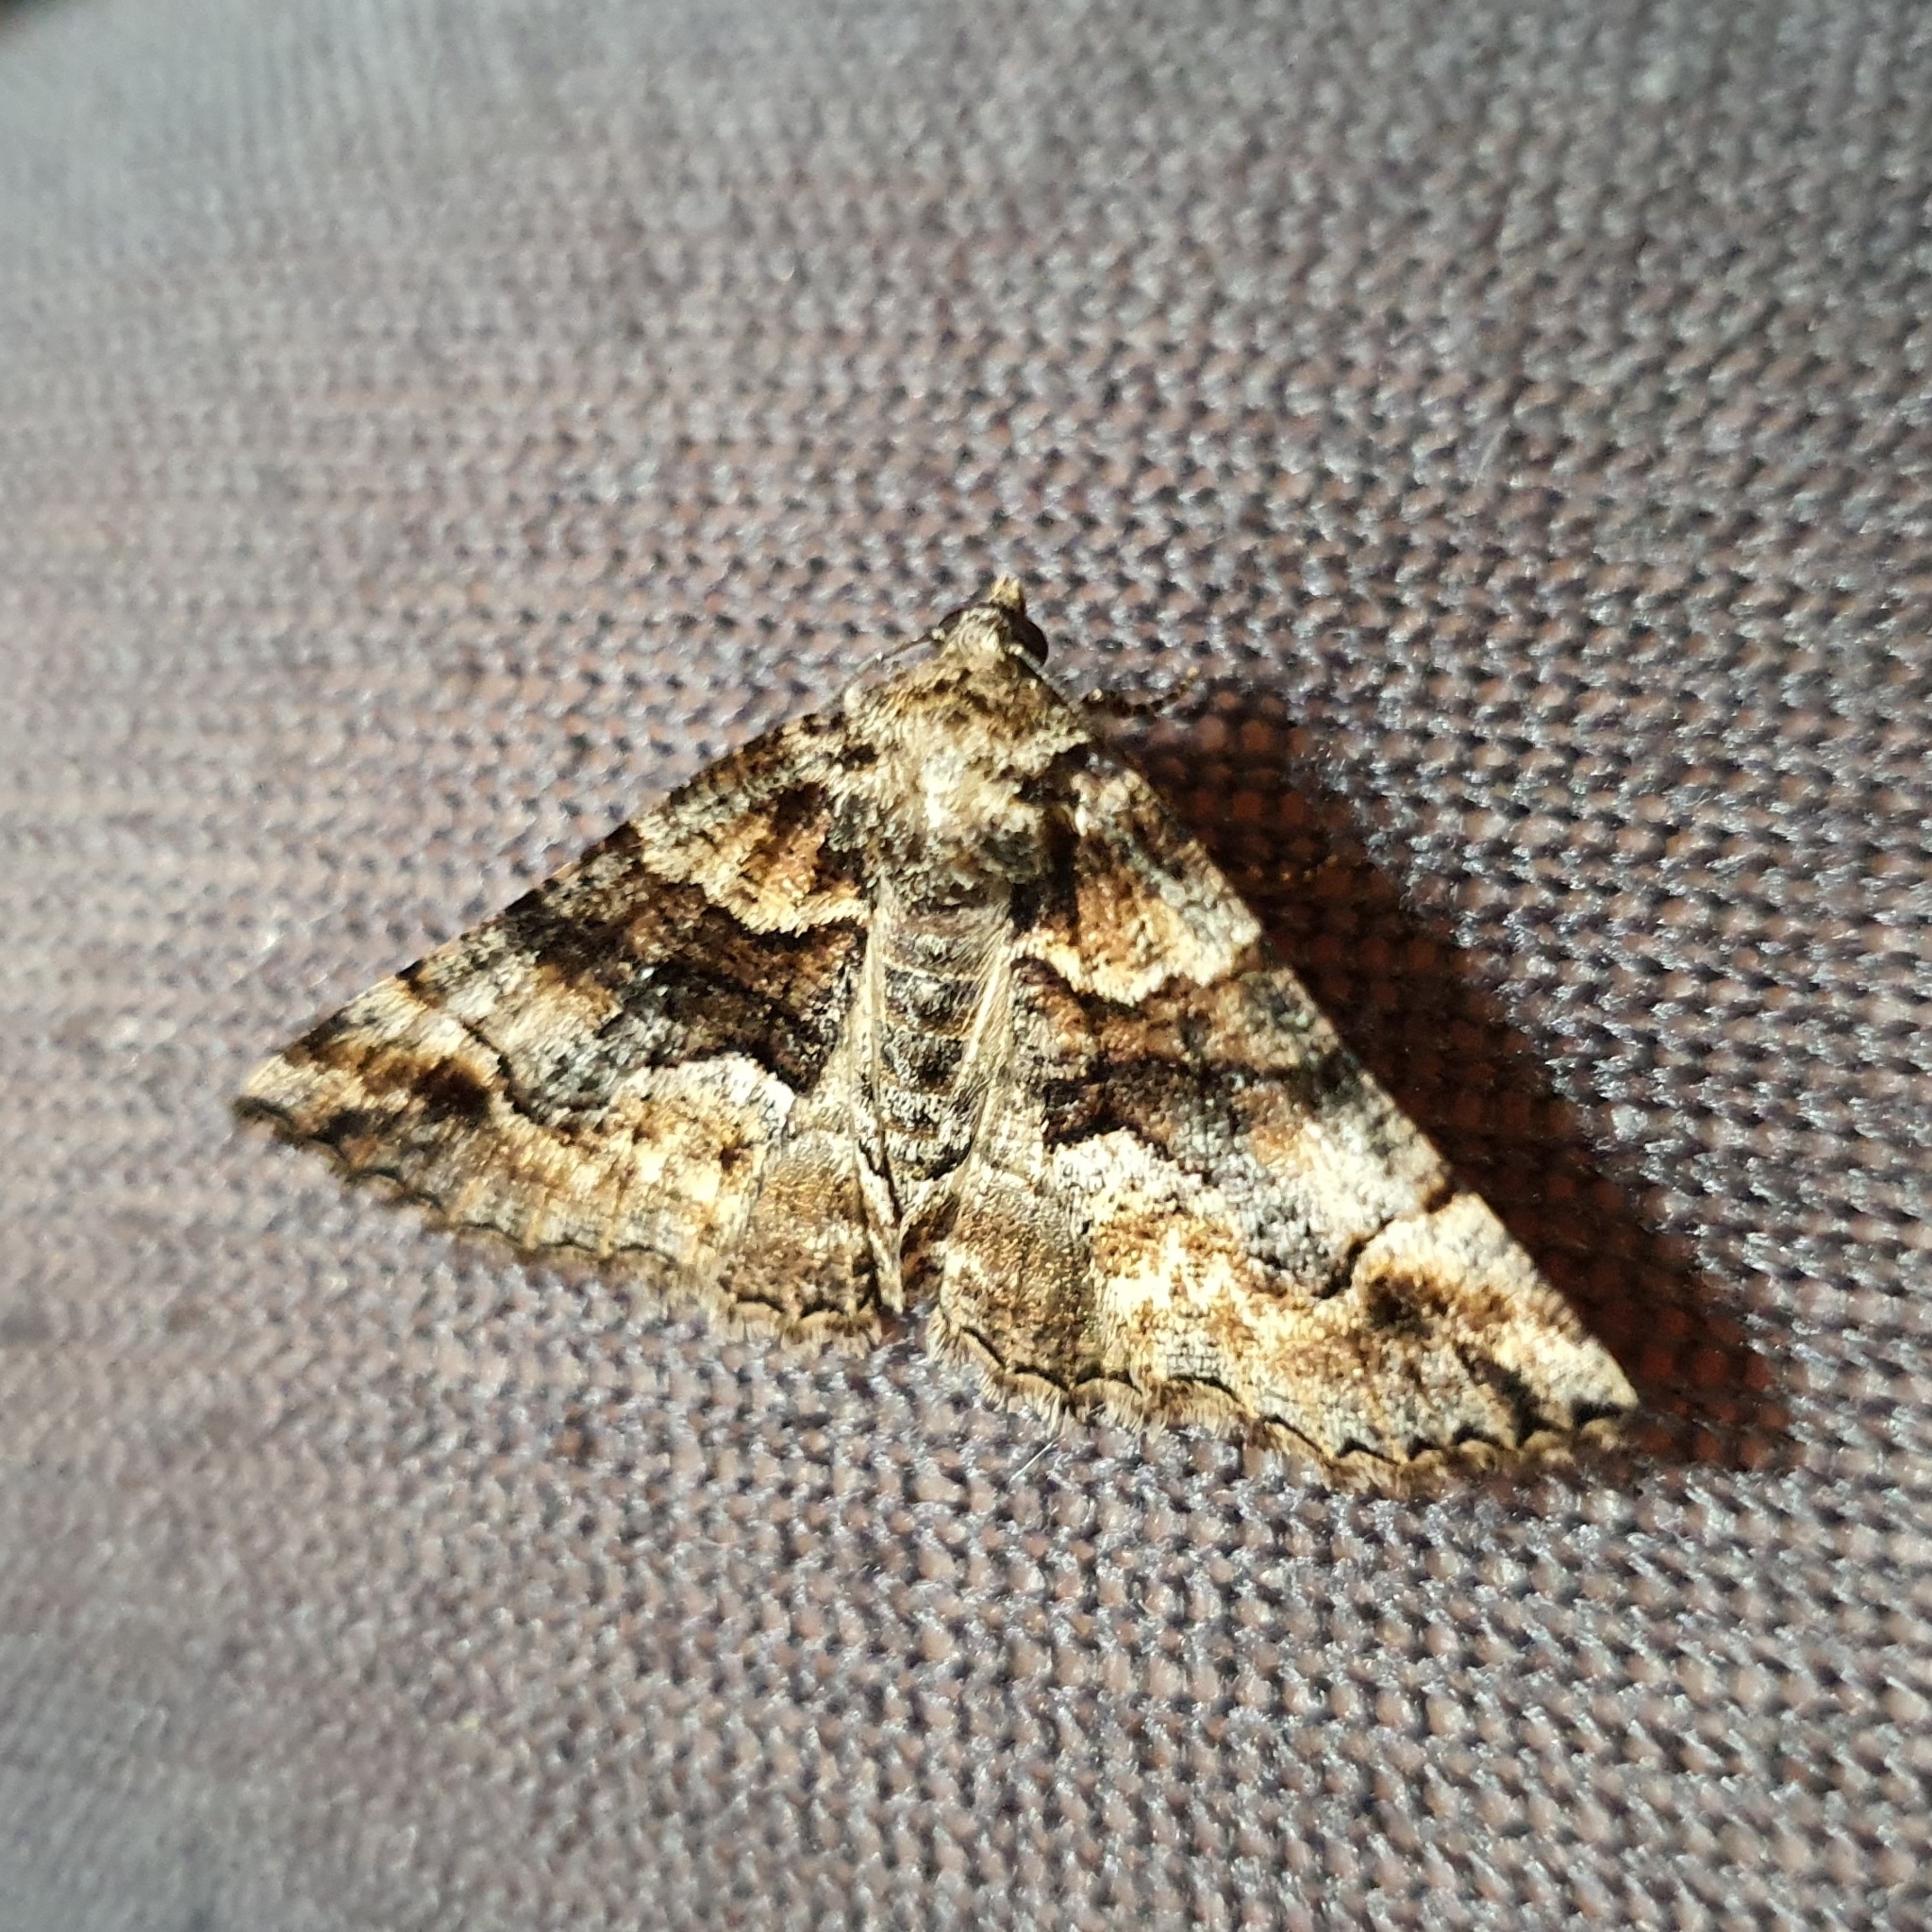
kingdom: Animalia
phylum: Arthropoda
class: Insecta
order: Lepidoptera
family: Geometridae
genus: Gastrina
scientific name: Gastrina cristaria
